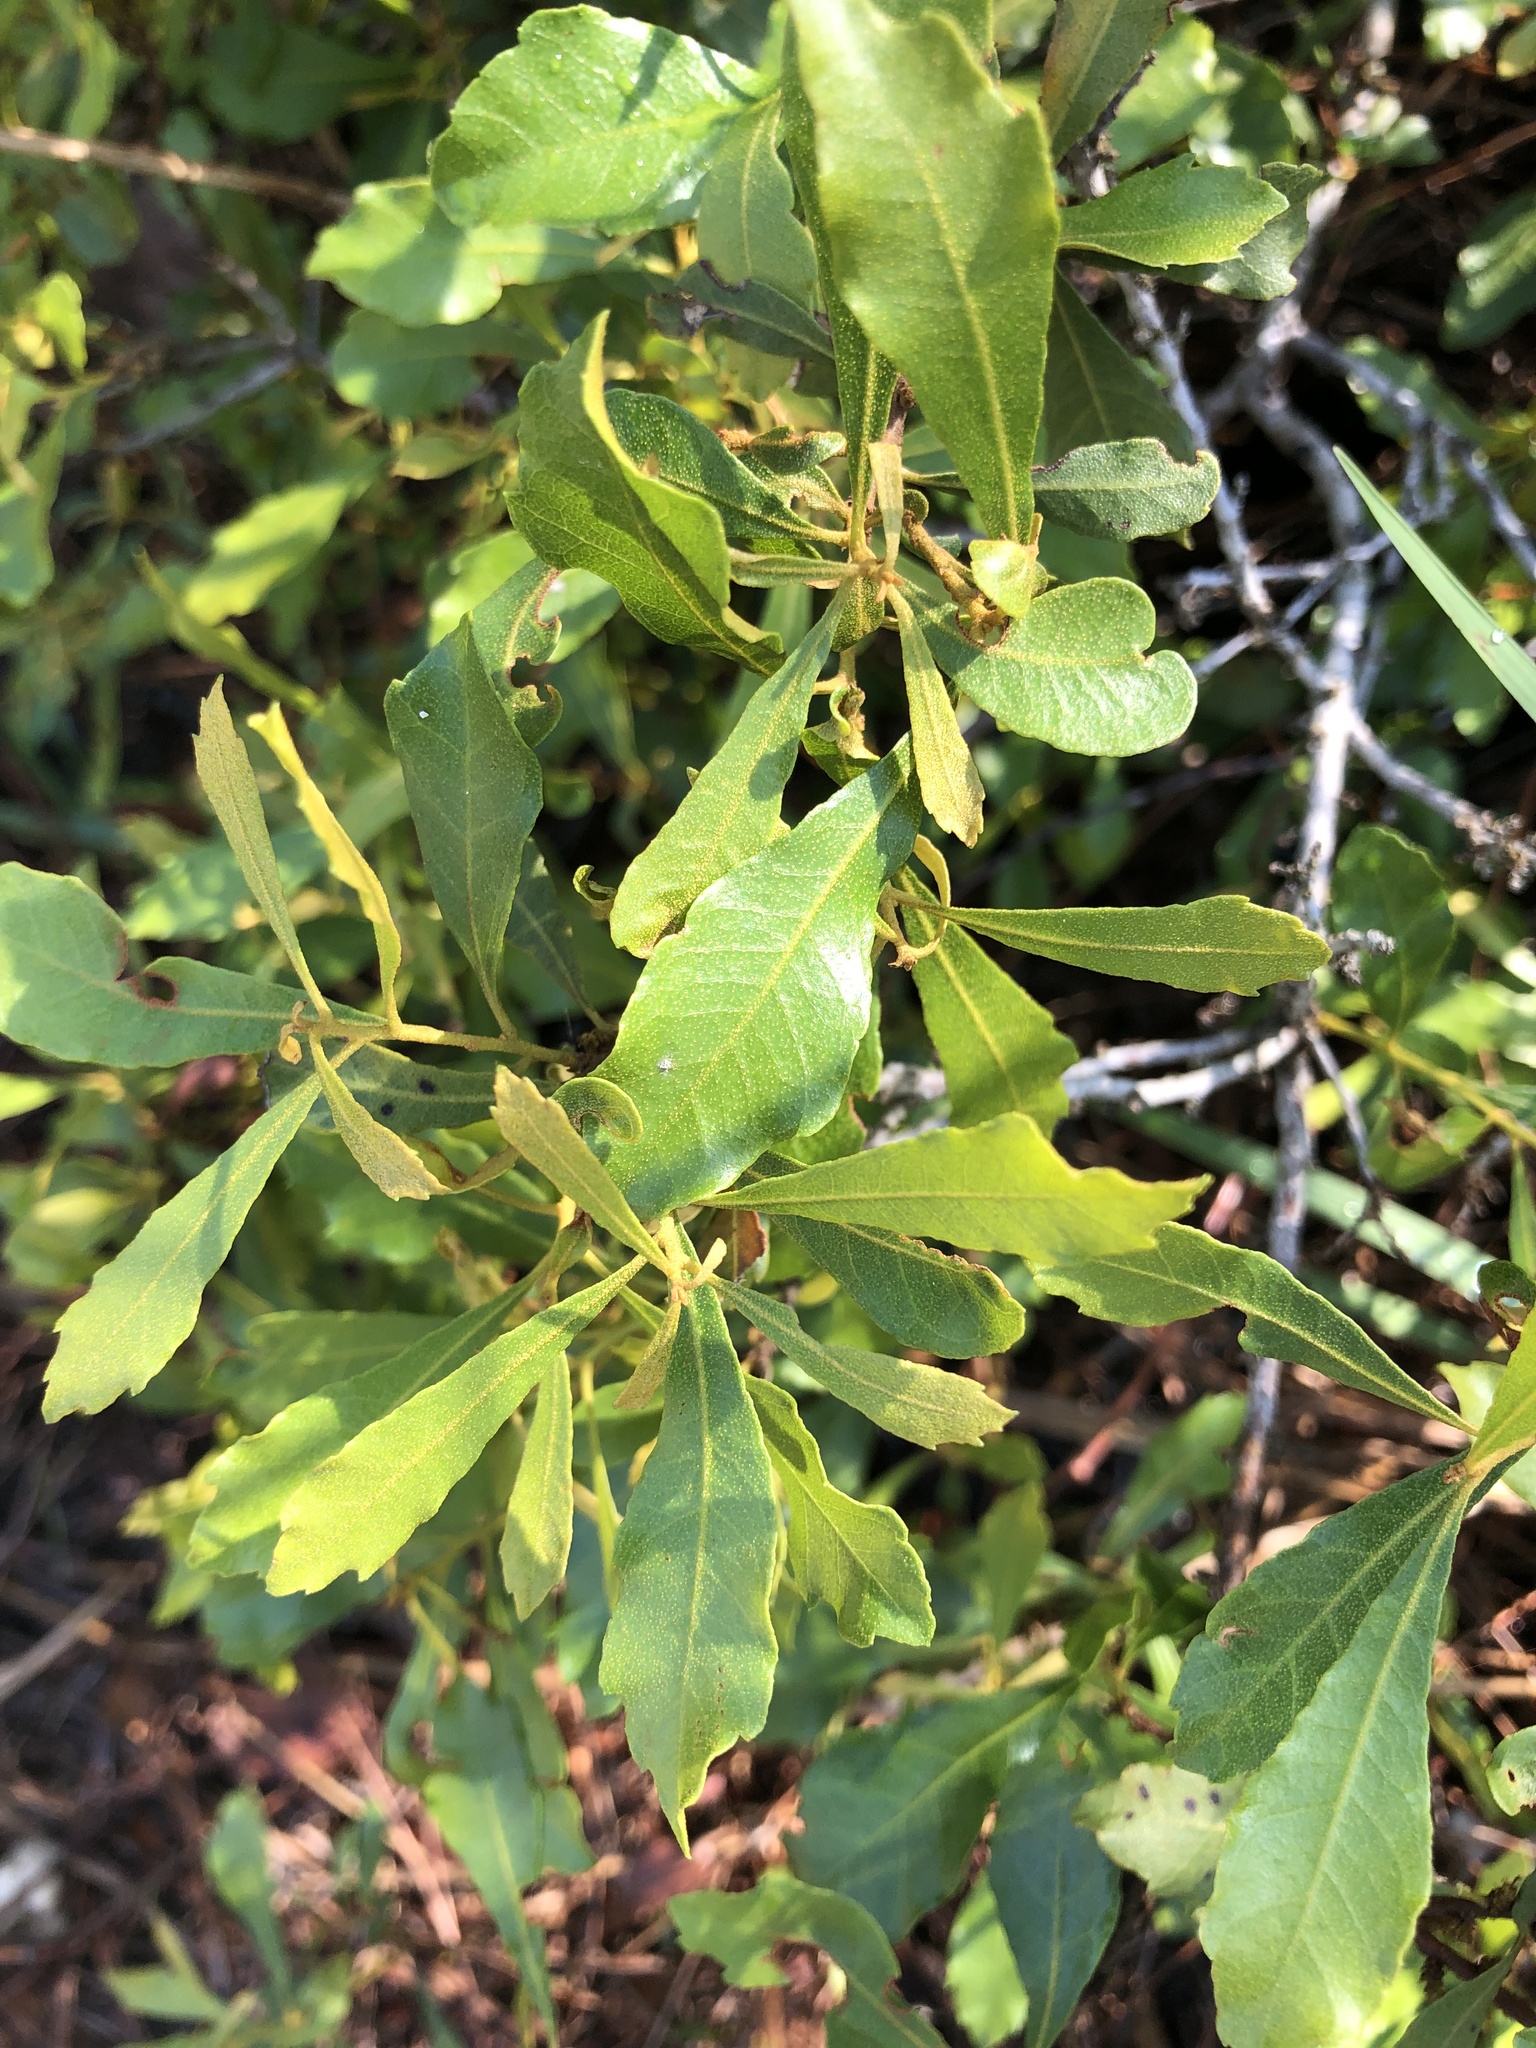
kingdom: Plantae
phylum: Tracheophyta
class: Magnoliopsida
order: Fagales
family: Myricaceae
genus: Morella
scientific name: Morella cerifera
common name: Wax myrtle
